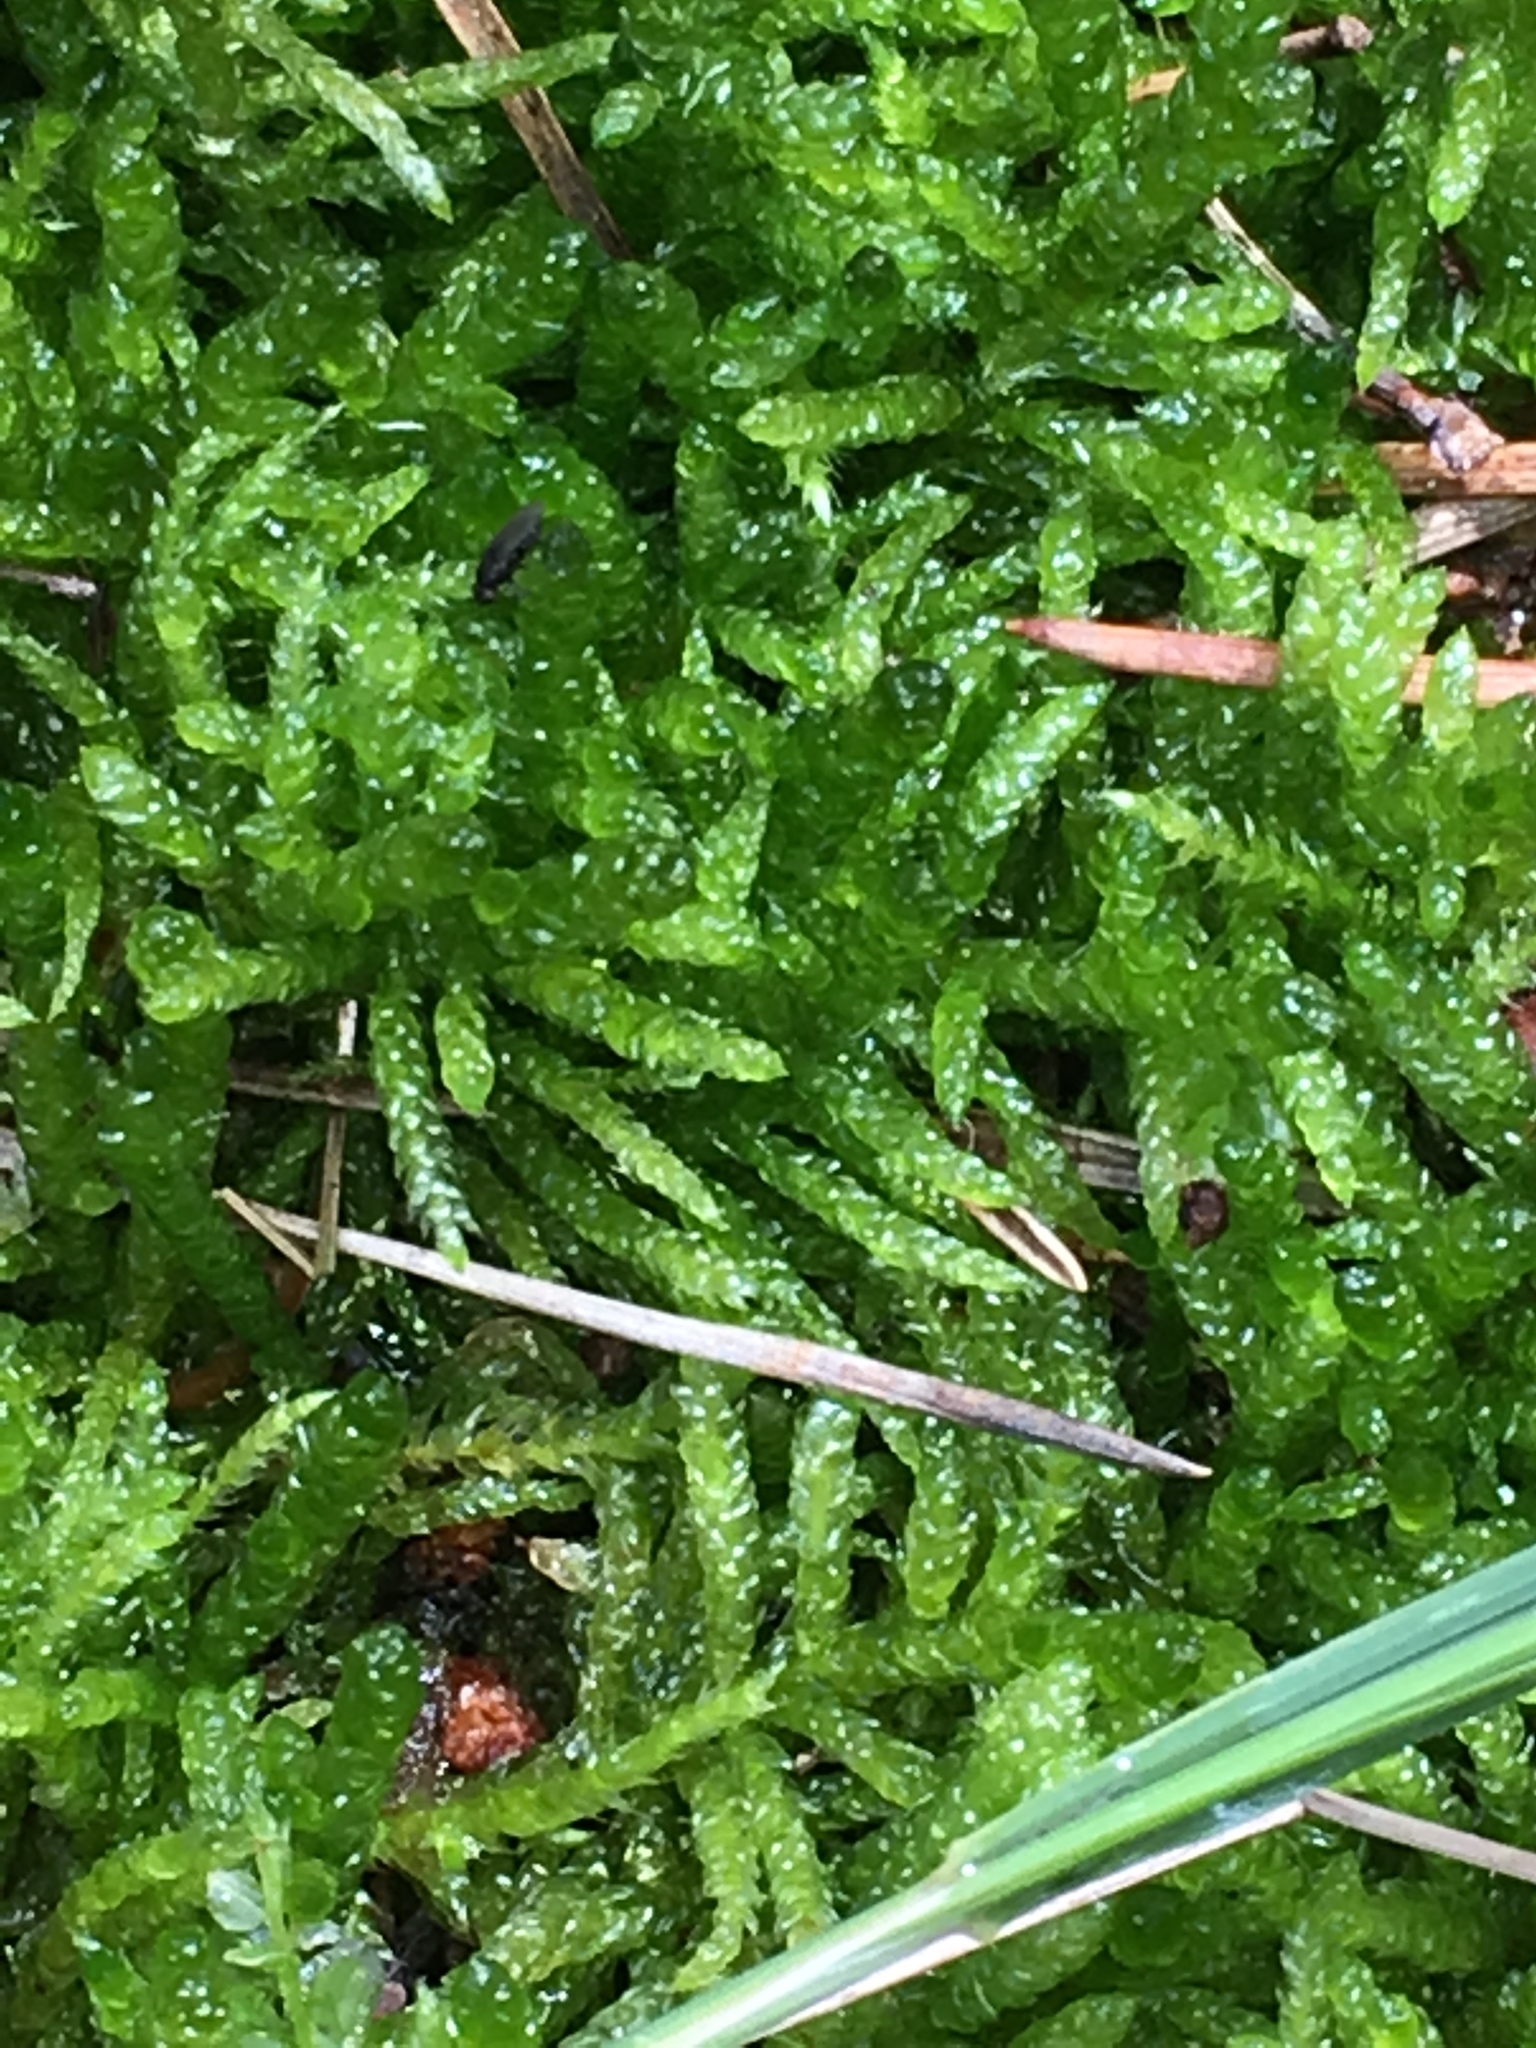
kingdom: Plantae
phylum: Bryophyta
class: Bryopsida
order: Hypnales
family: Brachytheciaceae
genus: Pseudoscleropodium
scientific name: Pseudoscleropodium purum
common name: Neat feather-moss
